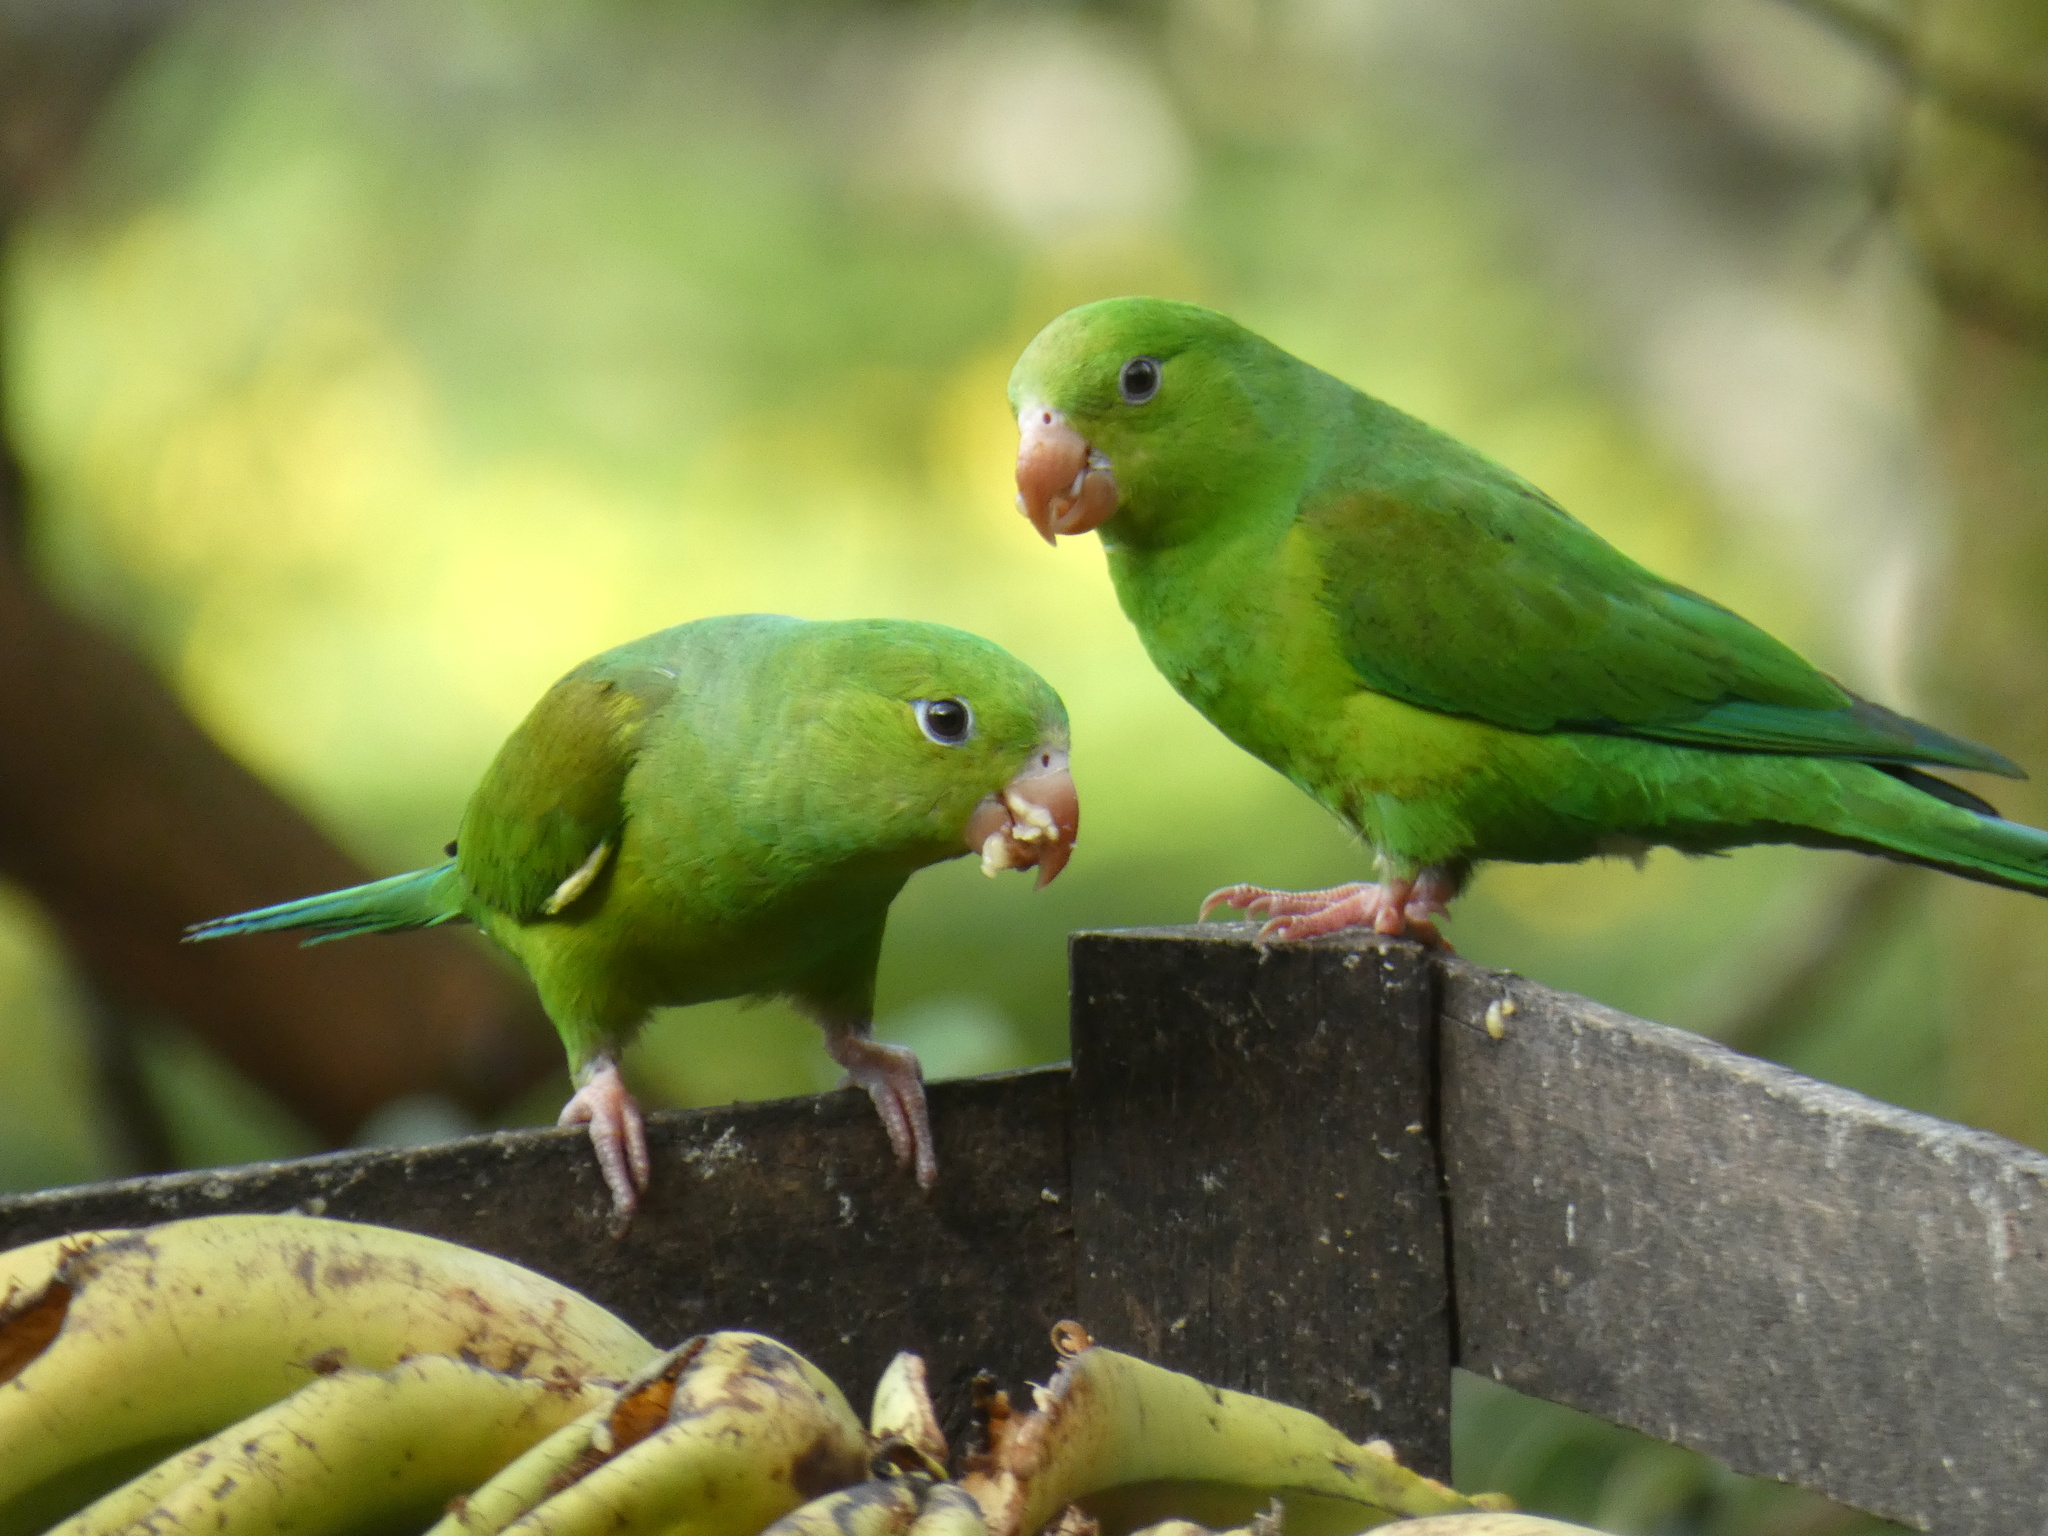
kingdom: Animalia
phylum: Chordata
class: Aves
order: Psittaciformes
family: Psittacidae
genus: Brotogeris
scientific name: Brotogeris tirica
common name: Plain parakeet
